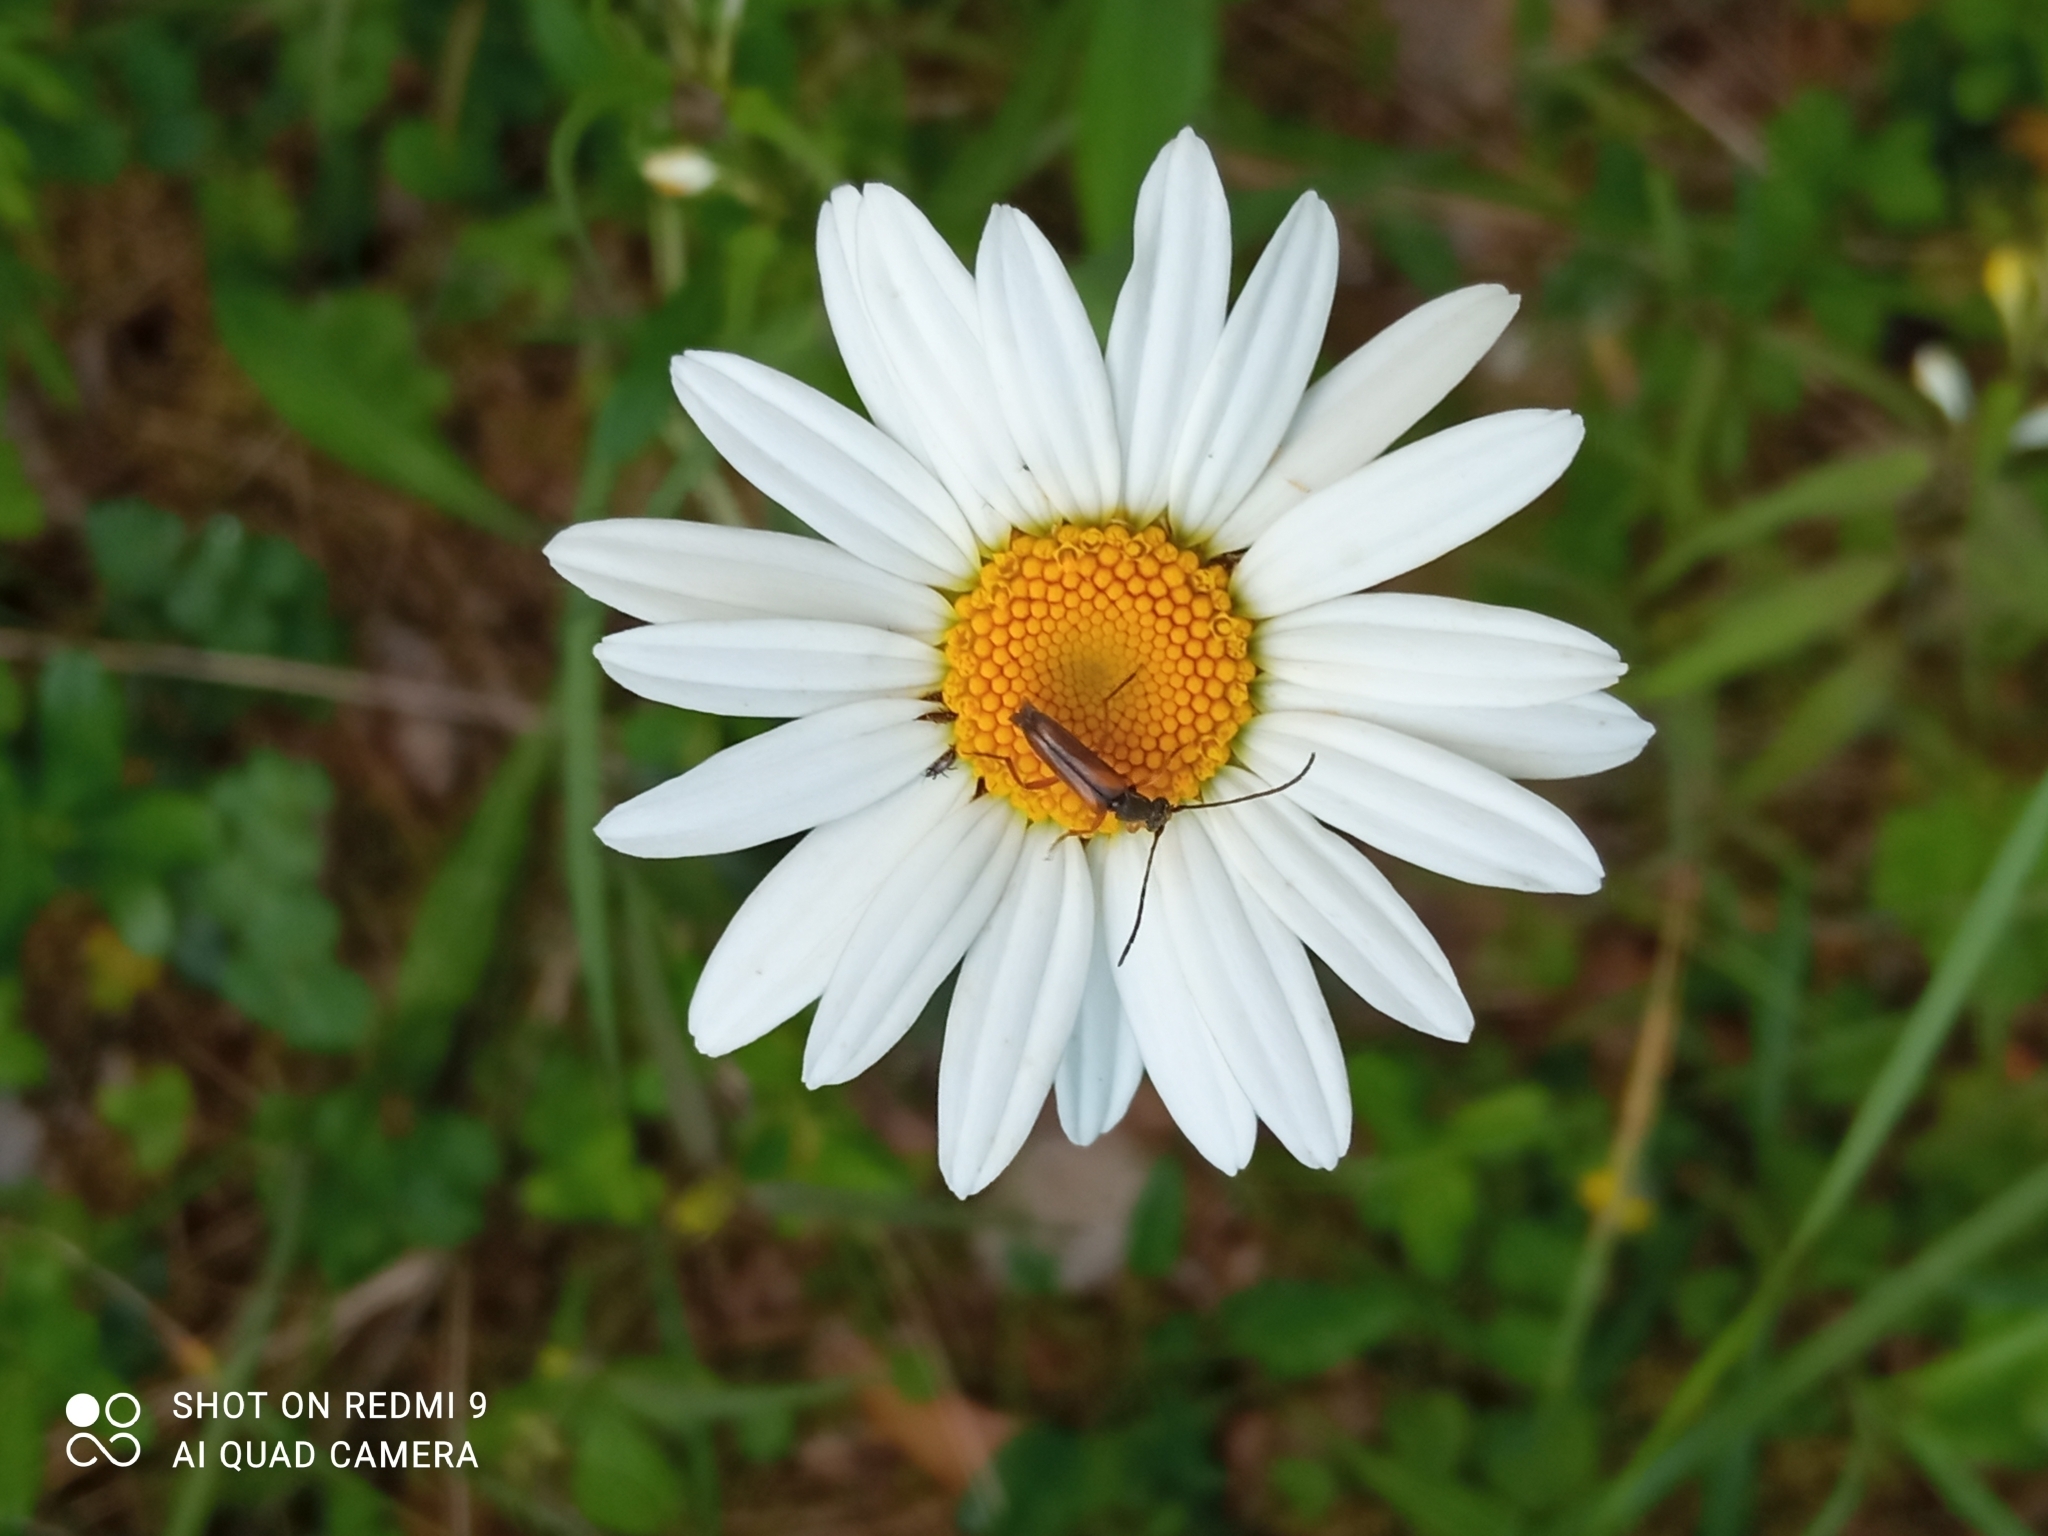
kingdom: Animalia
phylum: Arthropoda
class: Insecta
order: Coleoptera
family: Cerambycidae
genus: Alosterna
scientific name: Alosterna tabacicolor
